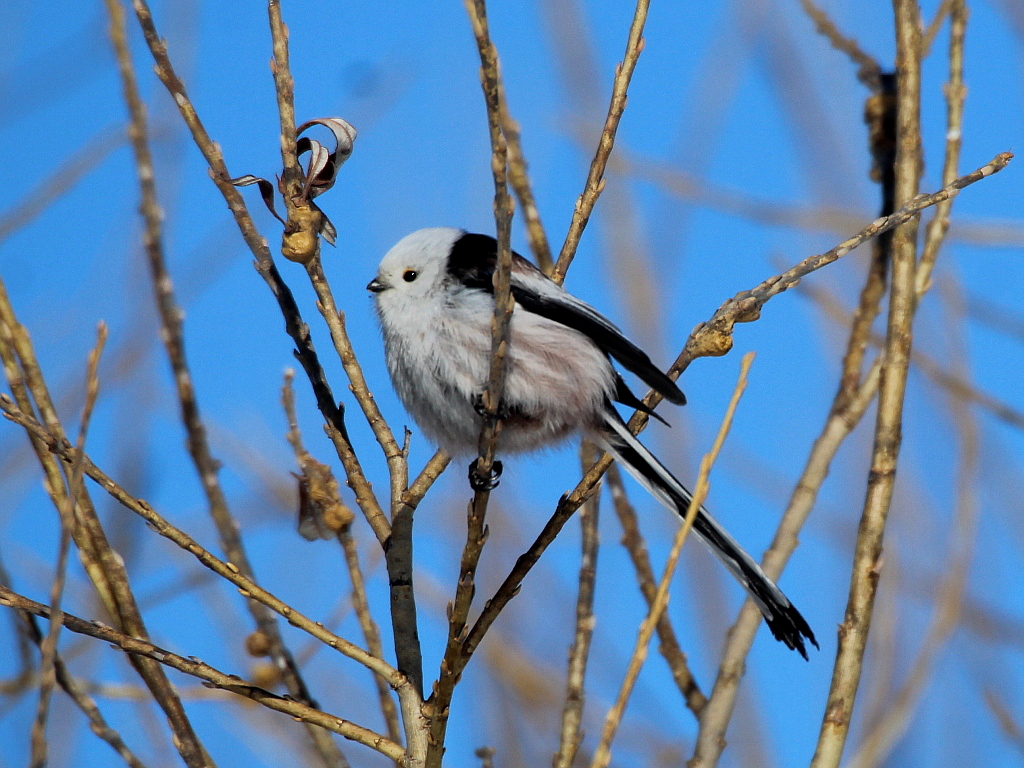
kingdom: Animalia
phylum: Chordata
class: Aves
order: Passeriformes
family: Aegithalidae
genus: Aegithalos
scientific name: Aegithalos caudatus
